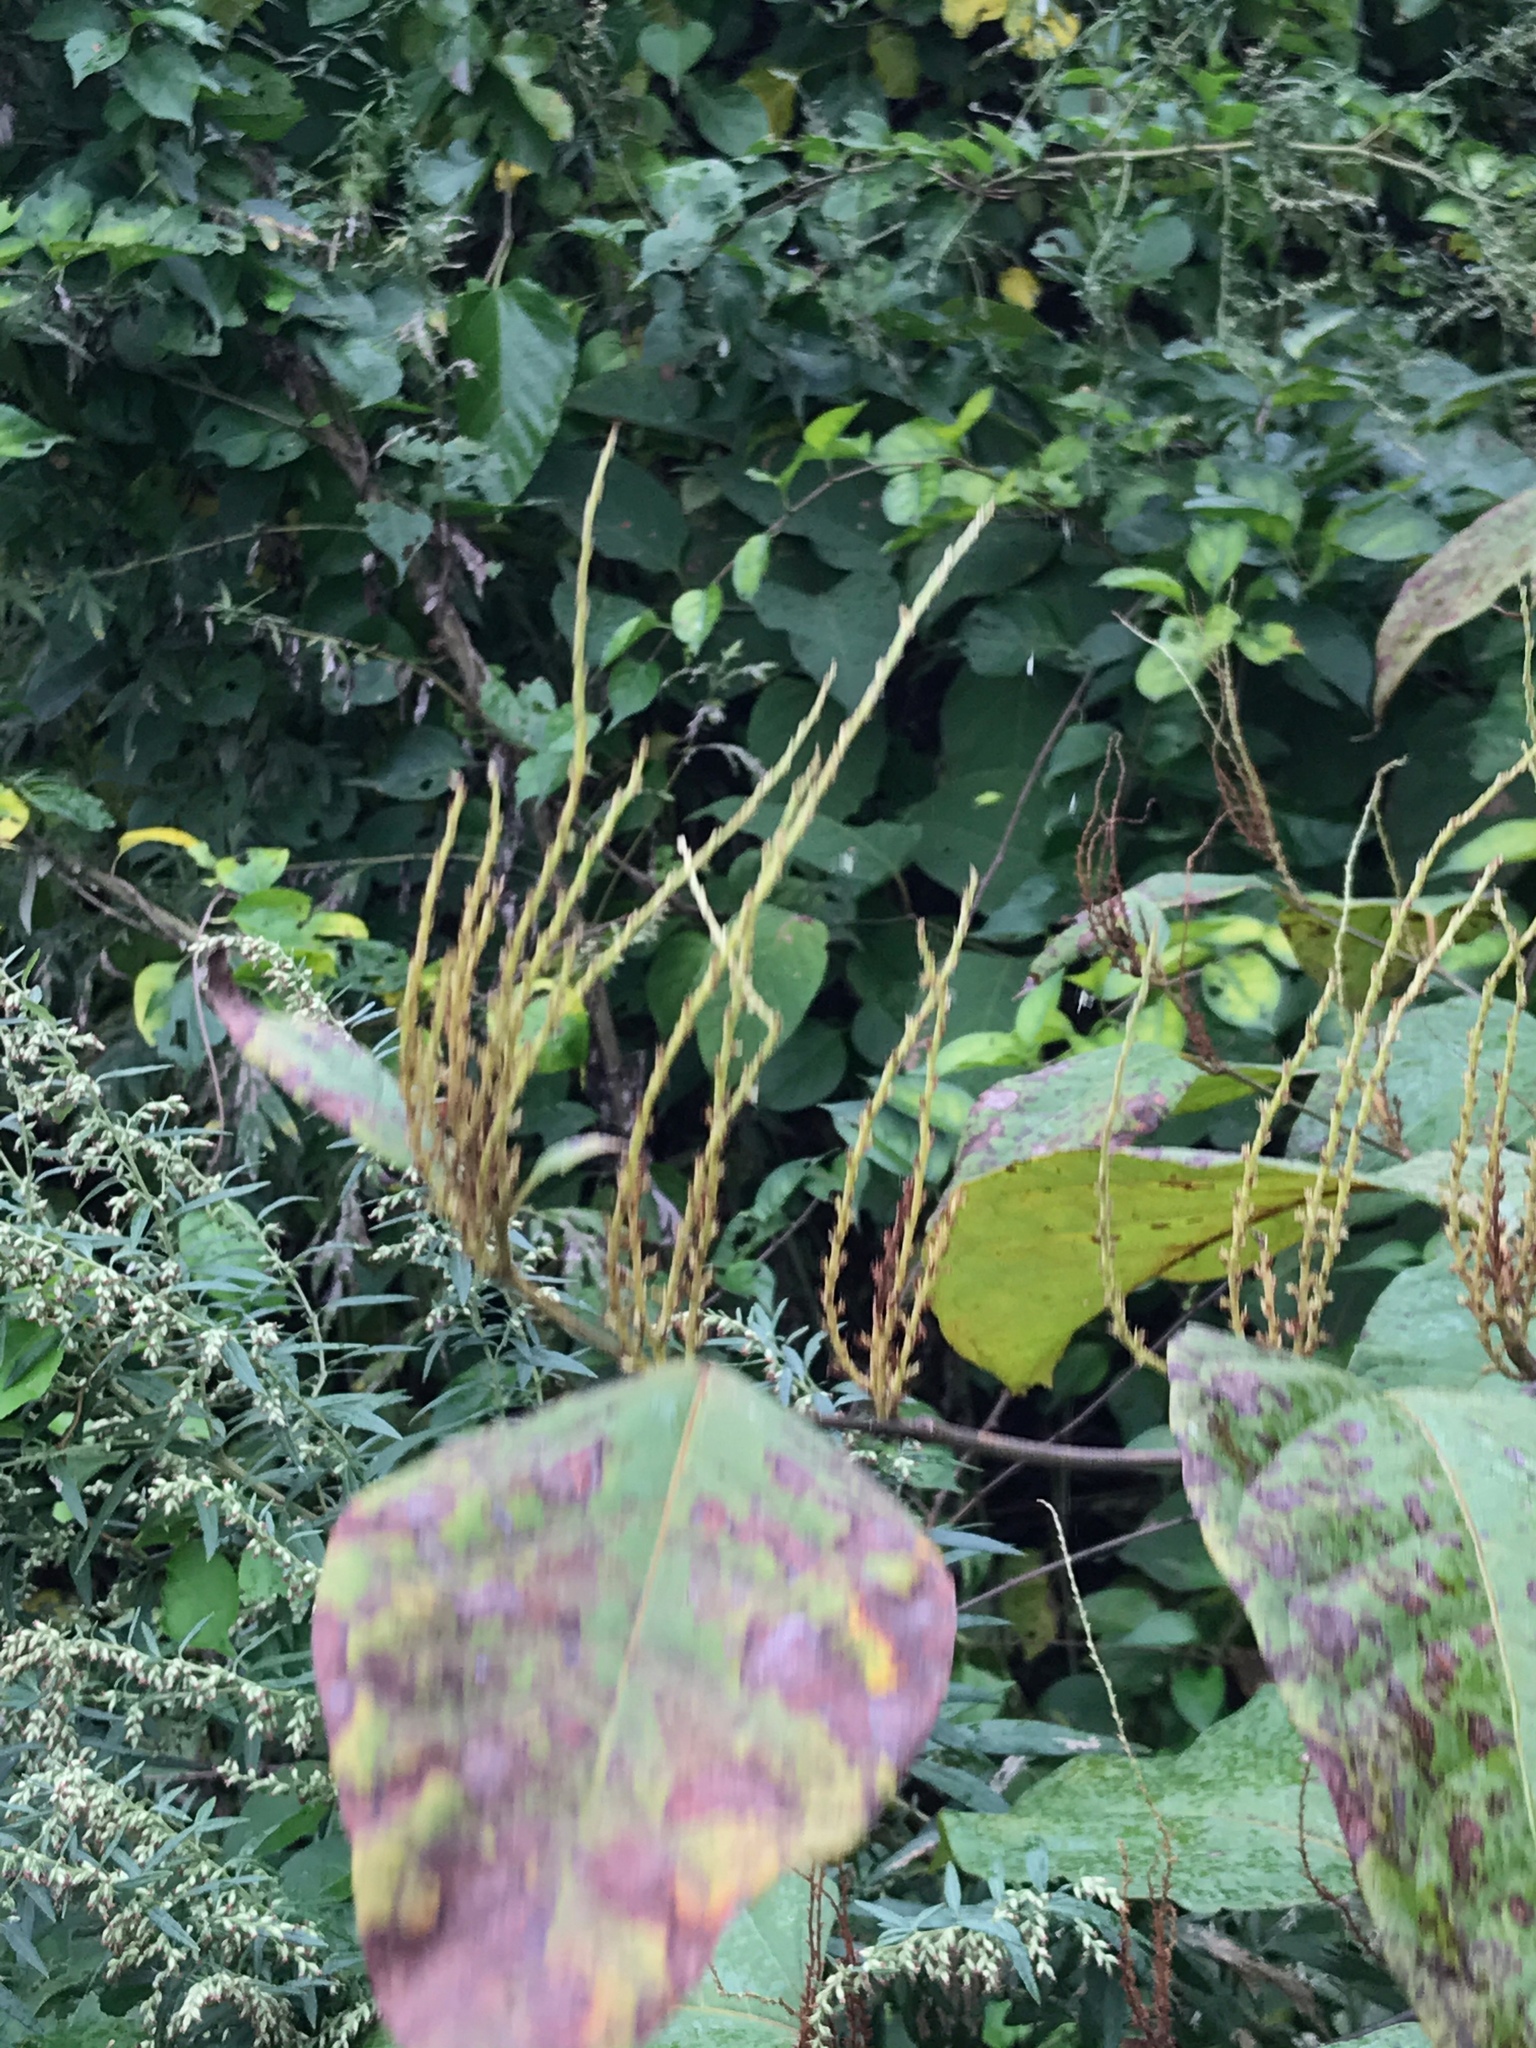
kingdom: Plantae
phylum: Tracheophyta
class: Magnoliopsida
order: Caryophyllales
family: Polygonaceae
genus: Reynoutria
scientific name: Reynoutria japonica
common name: Japanese knotweed
